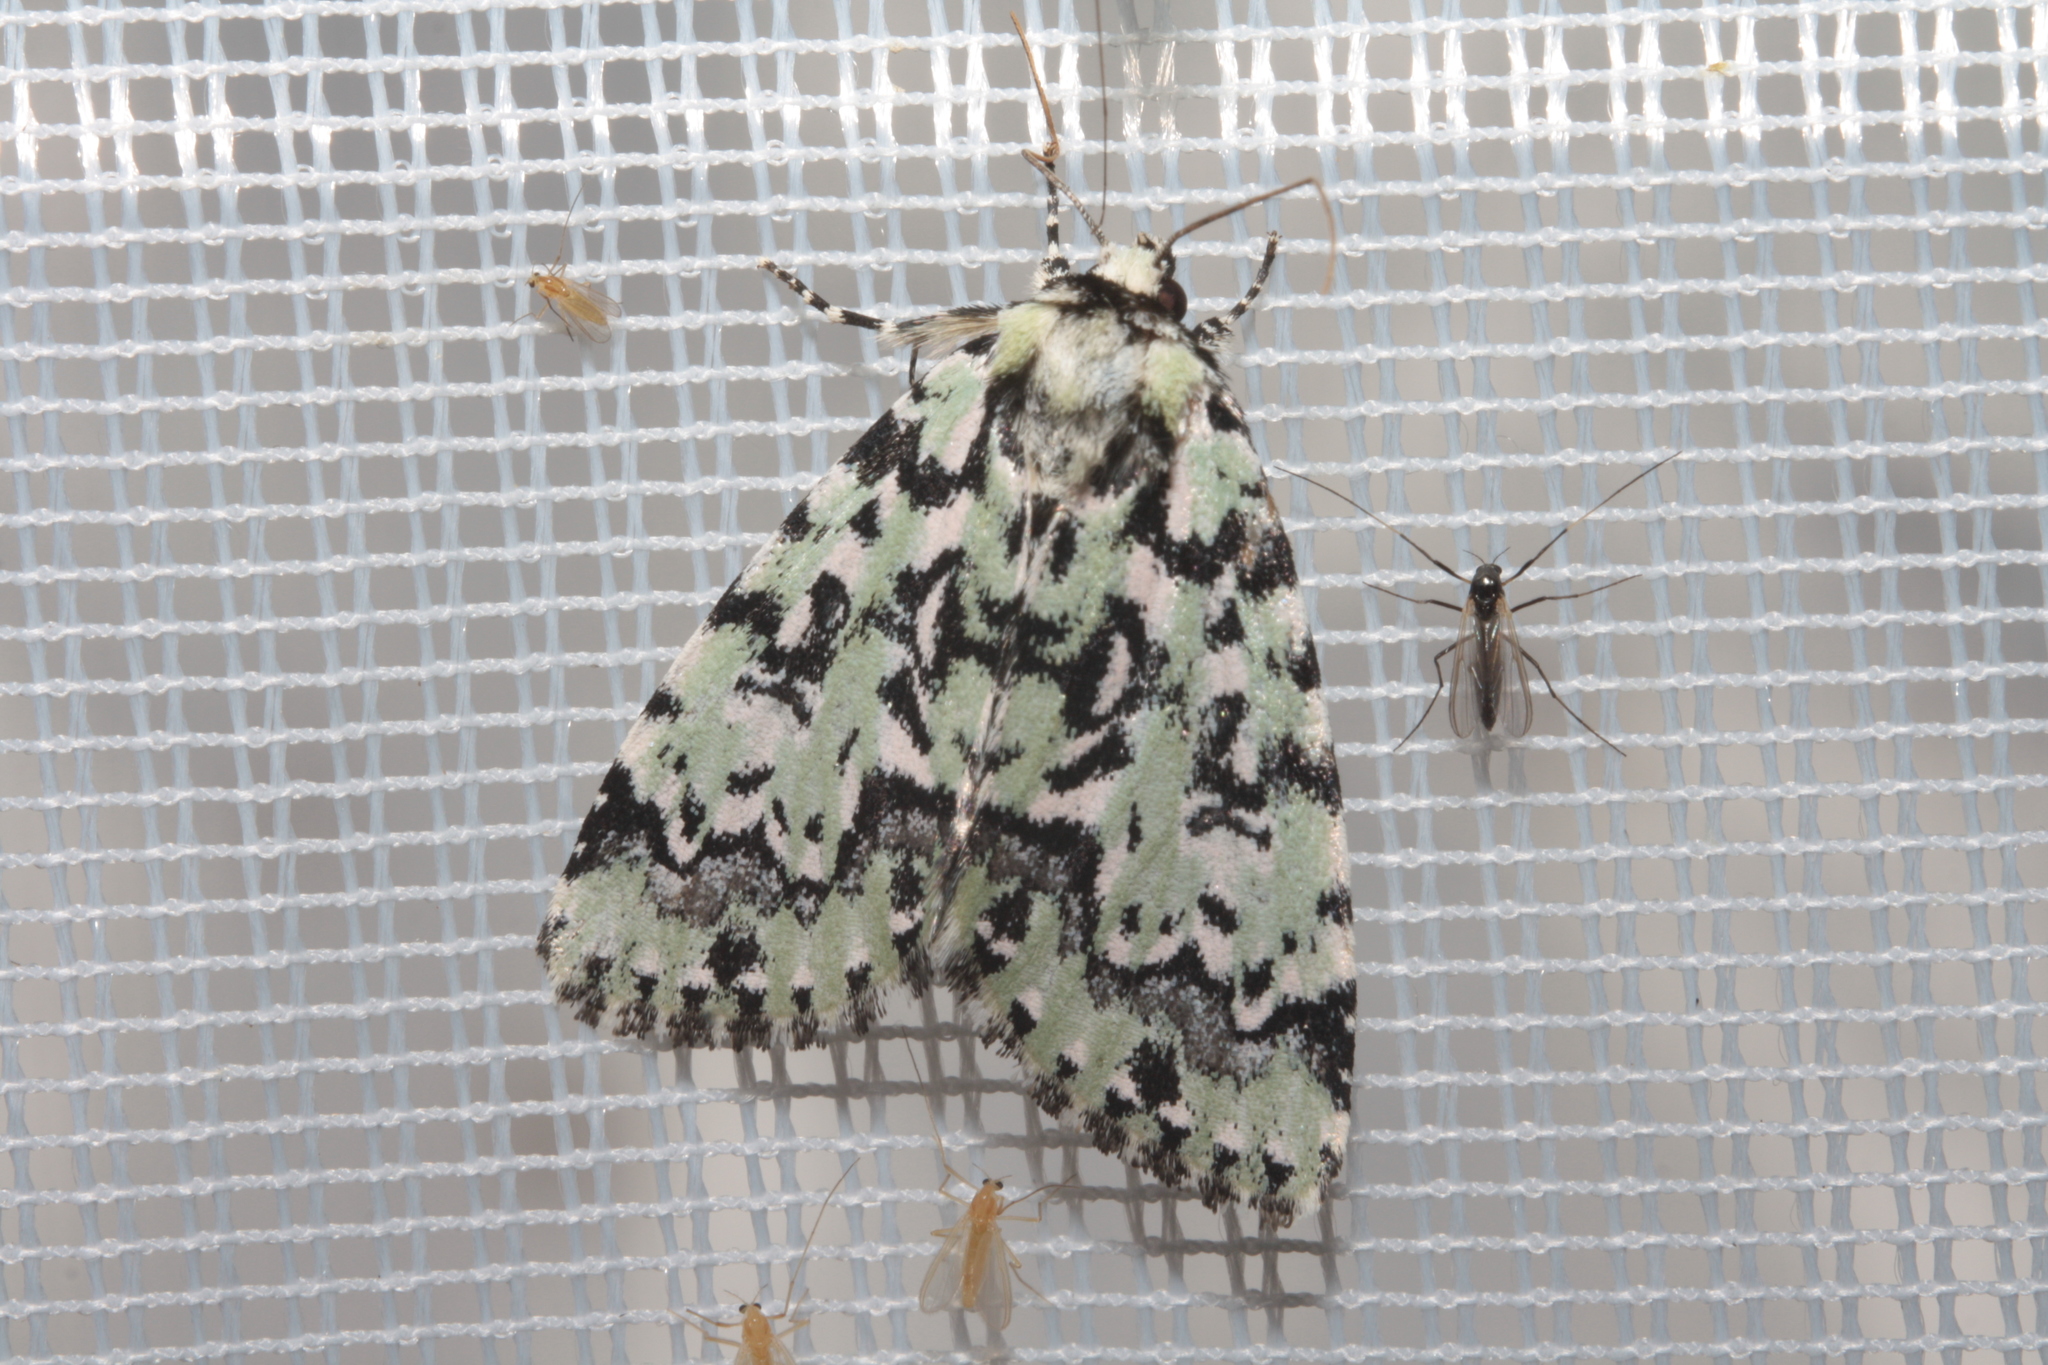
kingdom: Animalia
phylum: Arthropoda
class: Insecta
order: Lepidoptera
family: Noctuidae
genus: Moma
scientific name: Moma alpium
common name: Scarce merveille du jour
